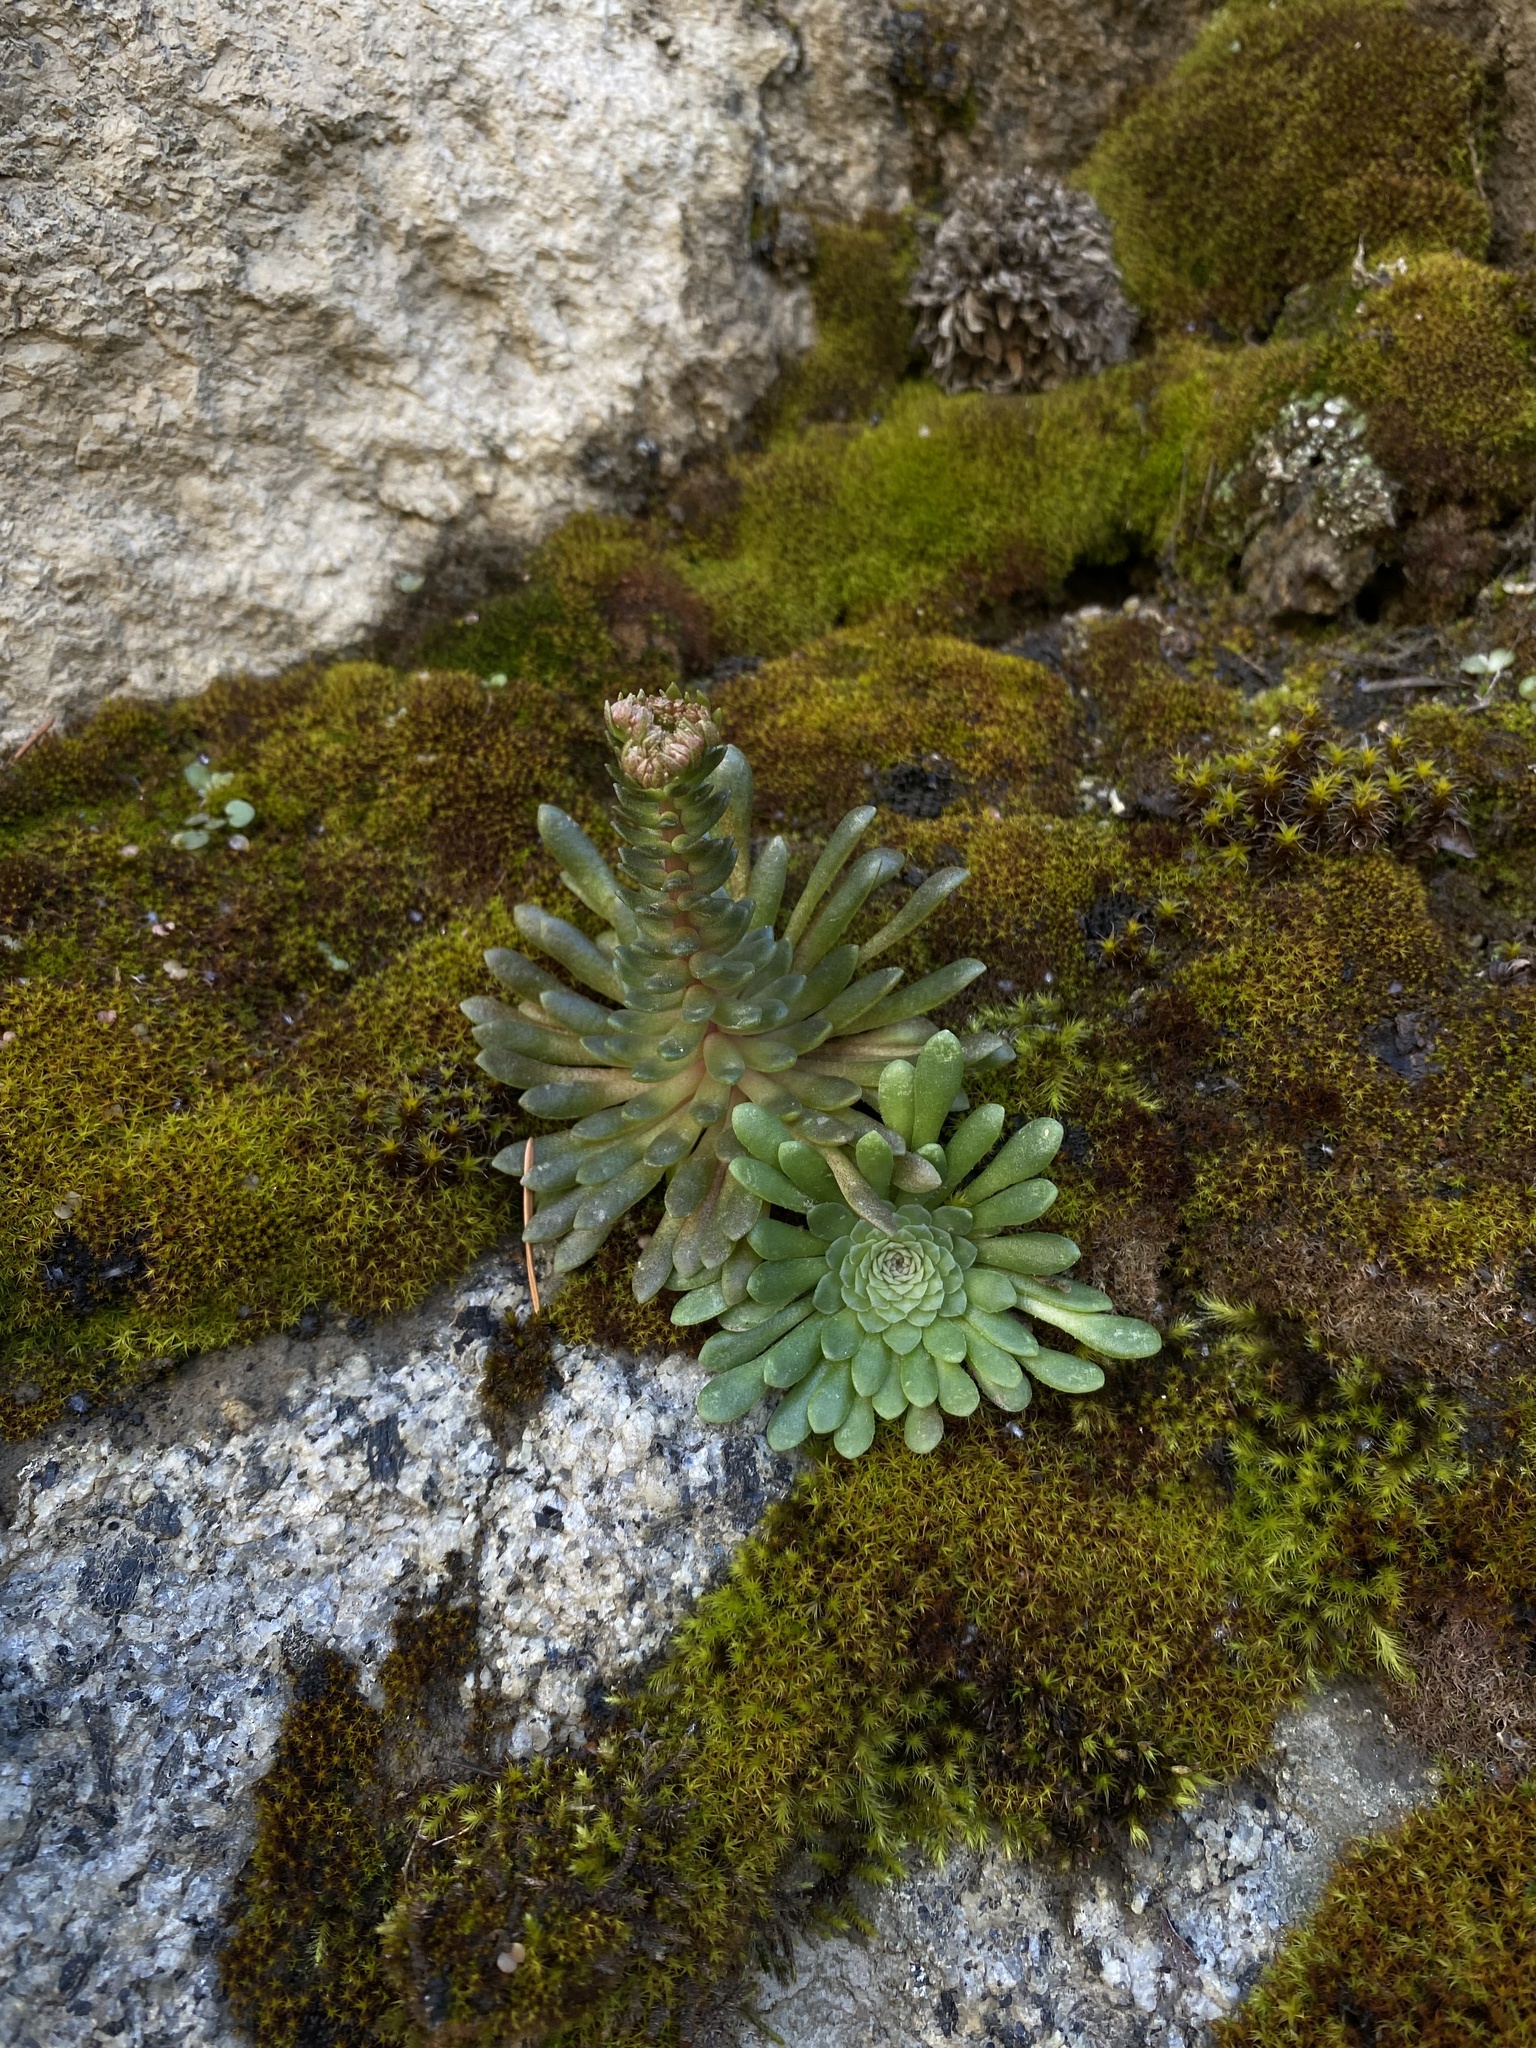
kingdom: Plantae
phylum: Tracheophyta
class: Magnoliopsida
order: Saxifragales
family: Crassulaceae
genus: Sedum
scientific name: Sedum valens
